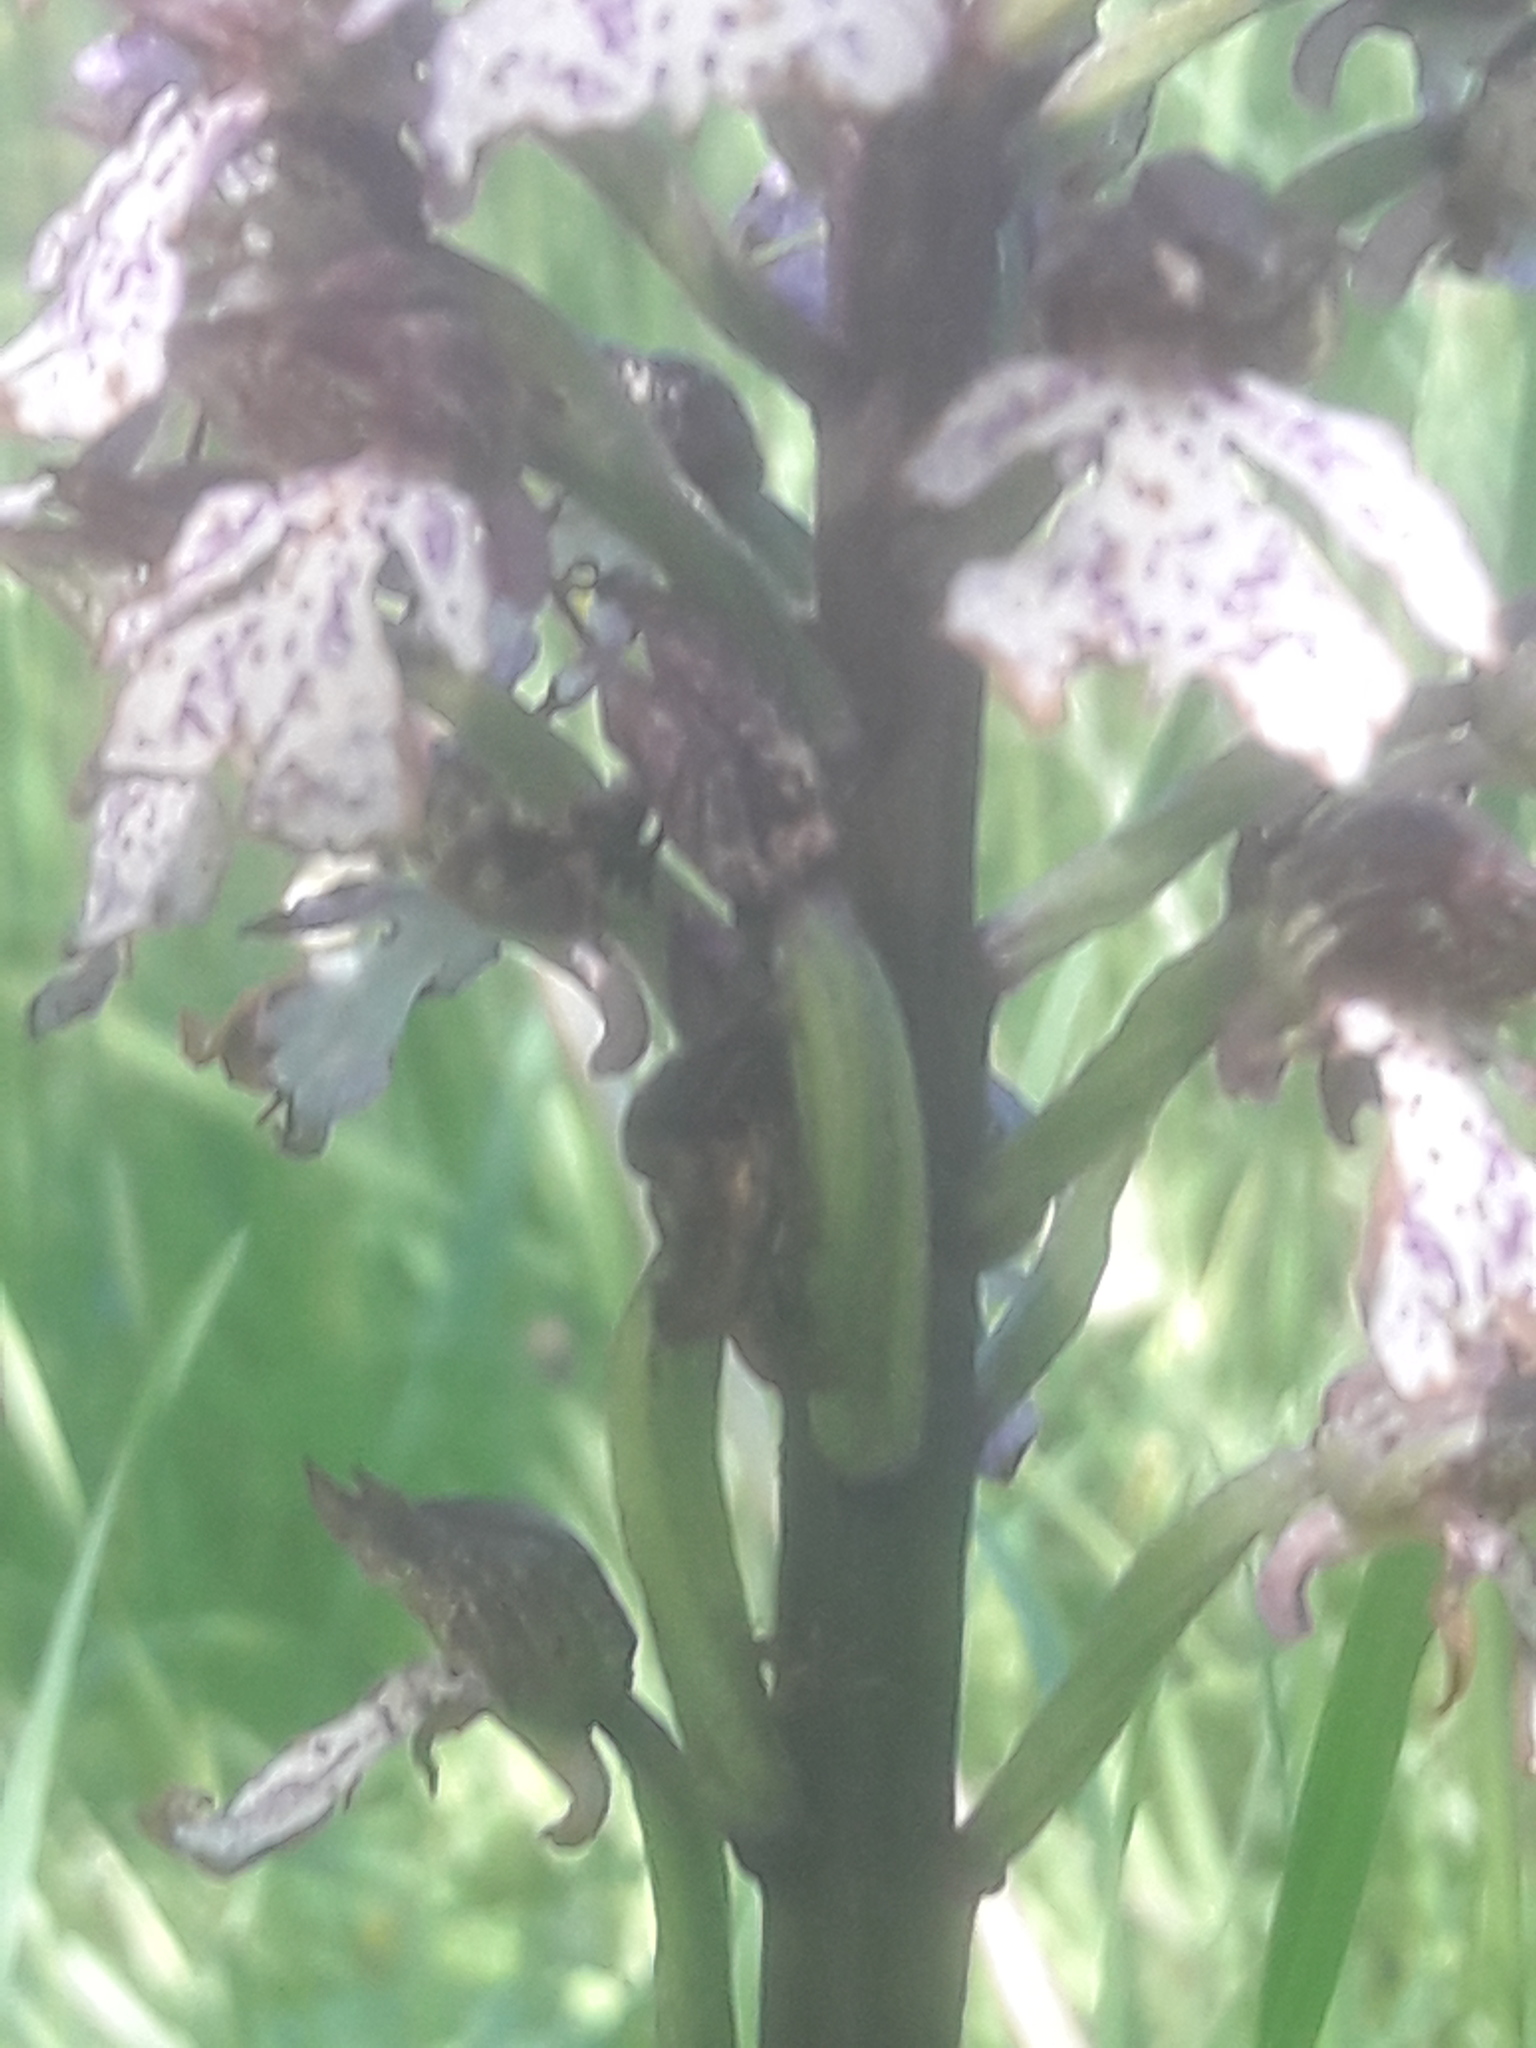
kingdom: Plantae
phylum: Tracheophyta
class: Liliopsida
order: Asparagales
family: Orchidaceae
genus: Orchis
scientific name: Orchis purpurea
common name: Lady orchid
